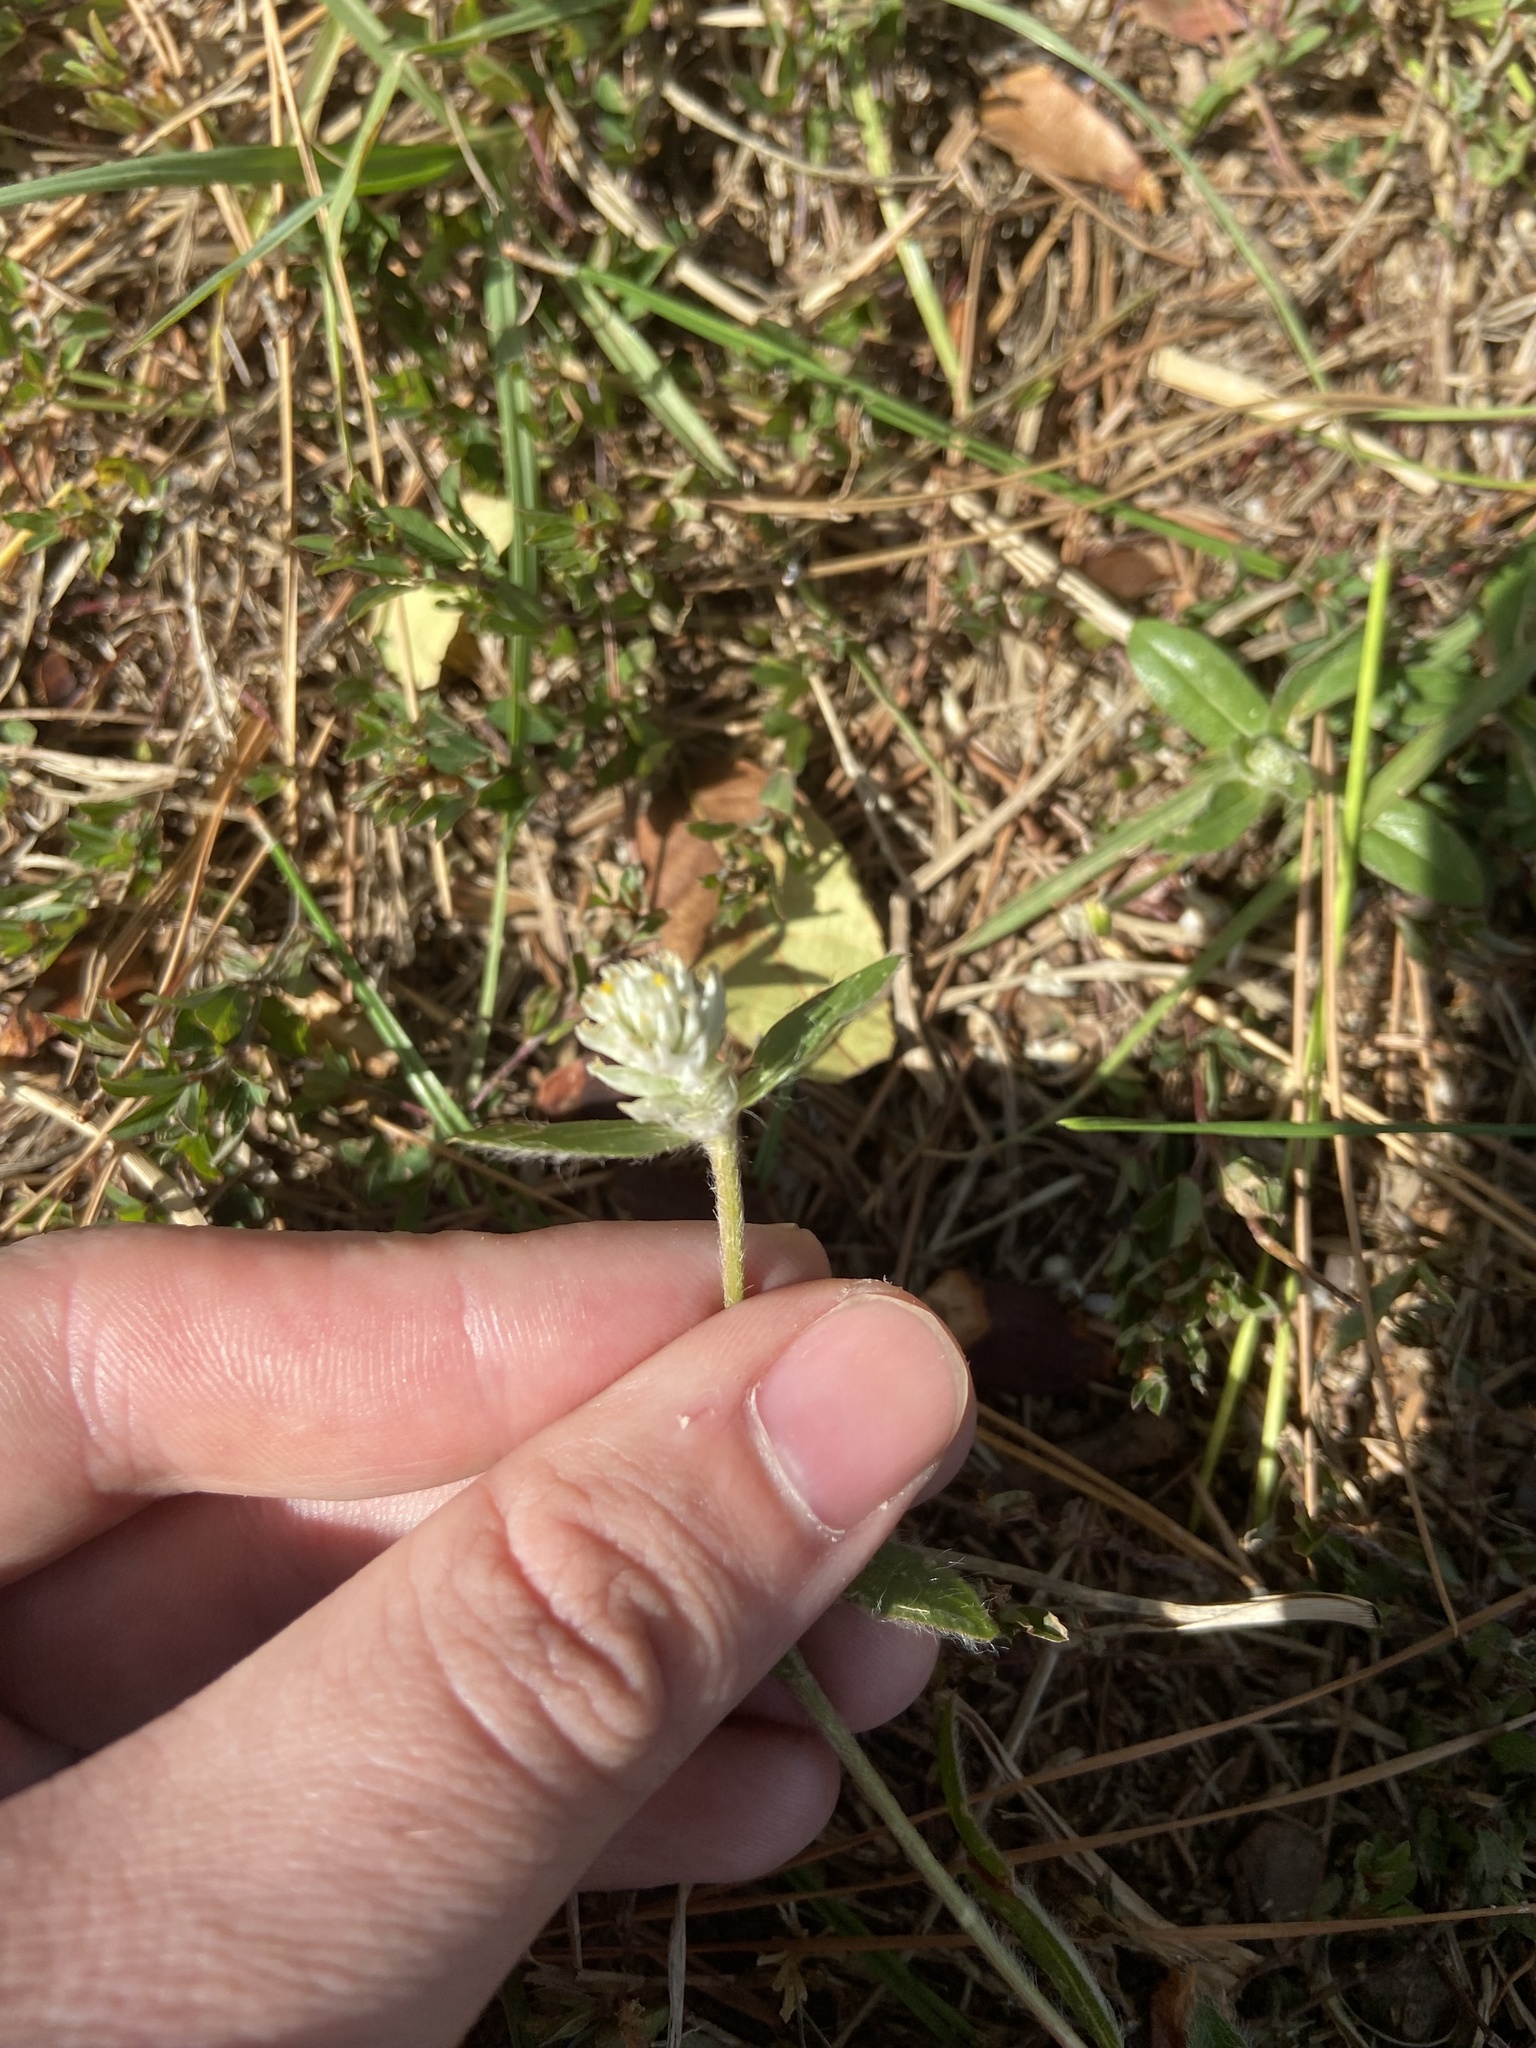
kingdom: Plantae
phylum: Tracheophyta
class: Magnoliopsida
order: Caryophyllales
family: Amaranthaceae
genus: Gomphrena
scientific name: Gomphrena serrata
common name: Arrasa con todo
